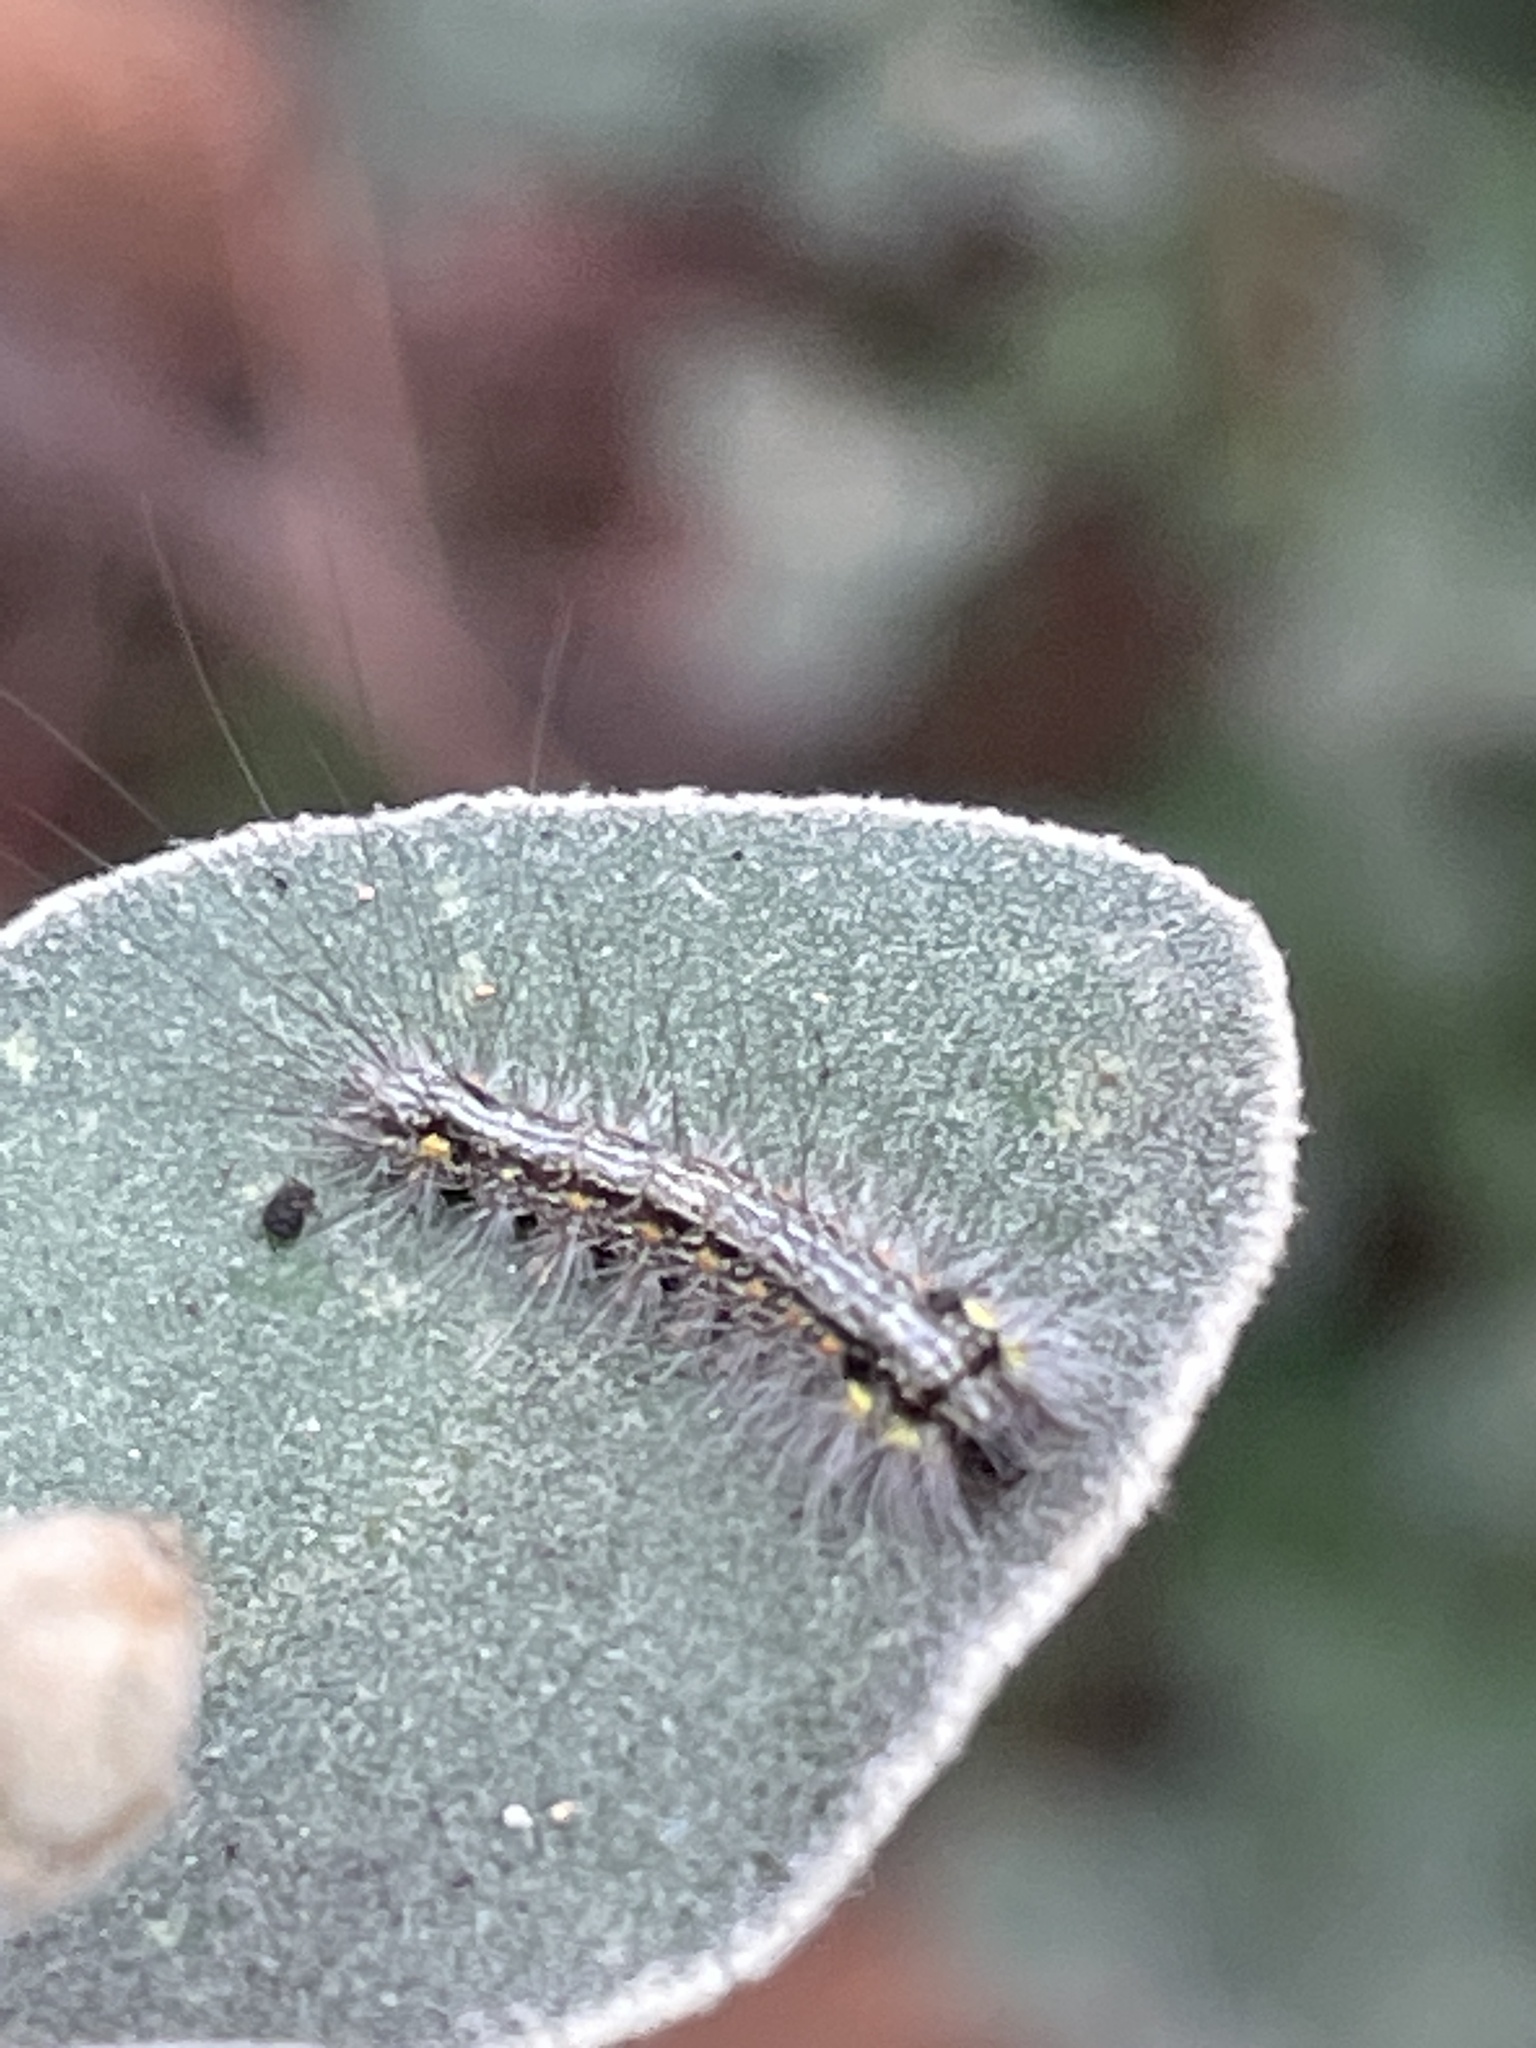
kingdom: Animalia
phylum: Arthropoda
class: Insecta
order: Lepidoptera
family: Erebidae
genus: Anestia
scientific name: Anestia
